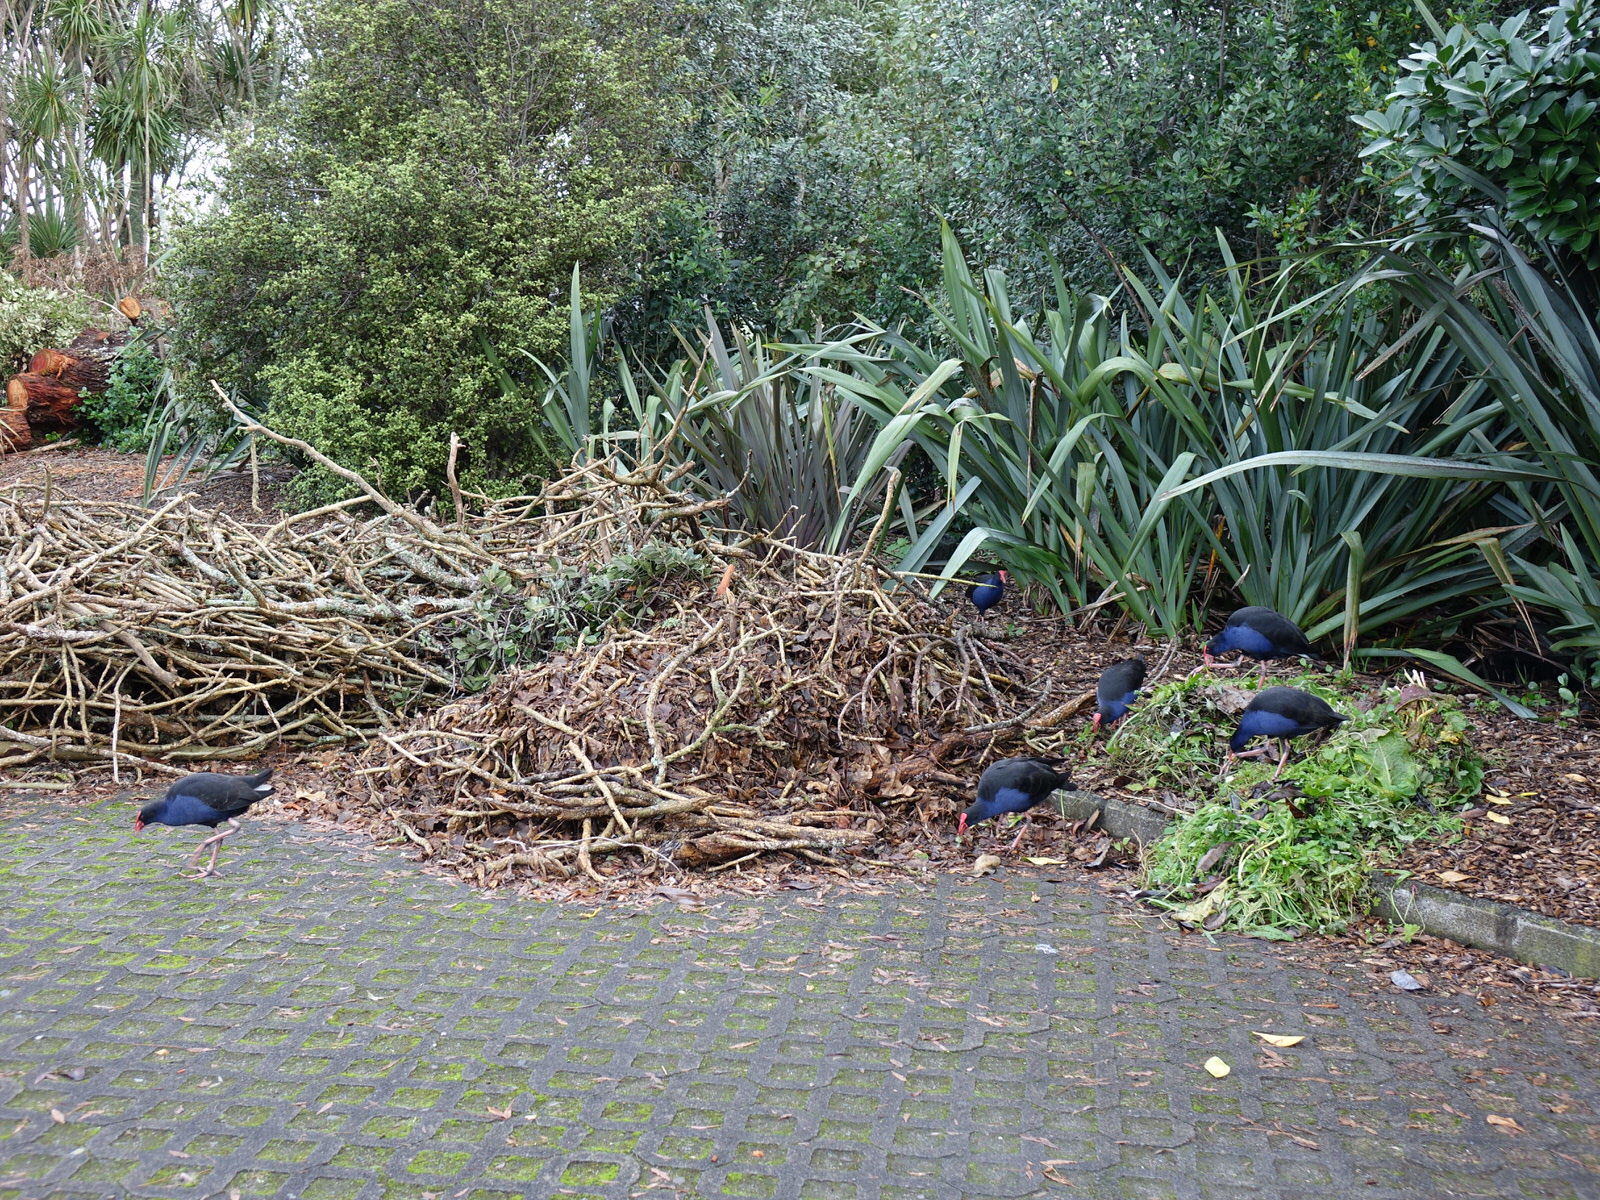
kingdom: Animalia
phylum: Chordata
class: Aves
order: Gruiformes
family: Rallidae
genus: Porphyrio
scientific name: Porphyrio melanotus
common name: Australasian swamphen
